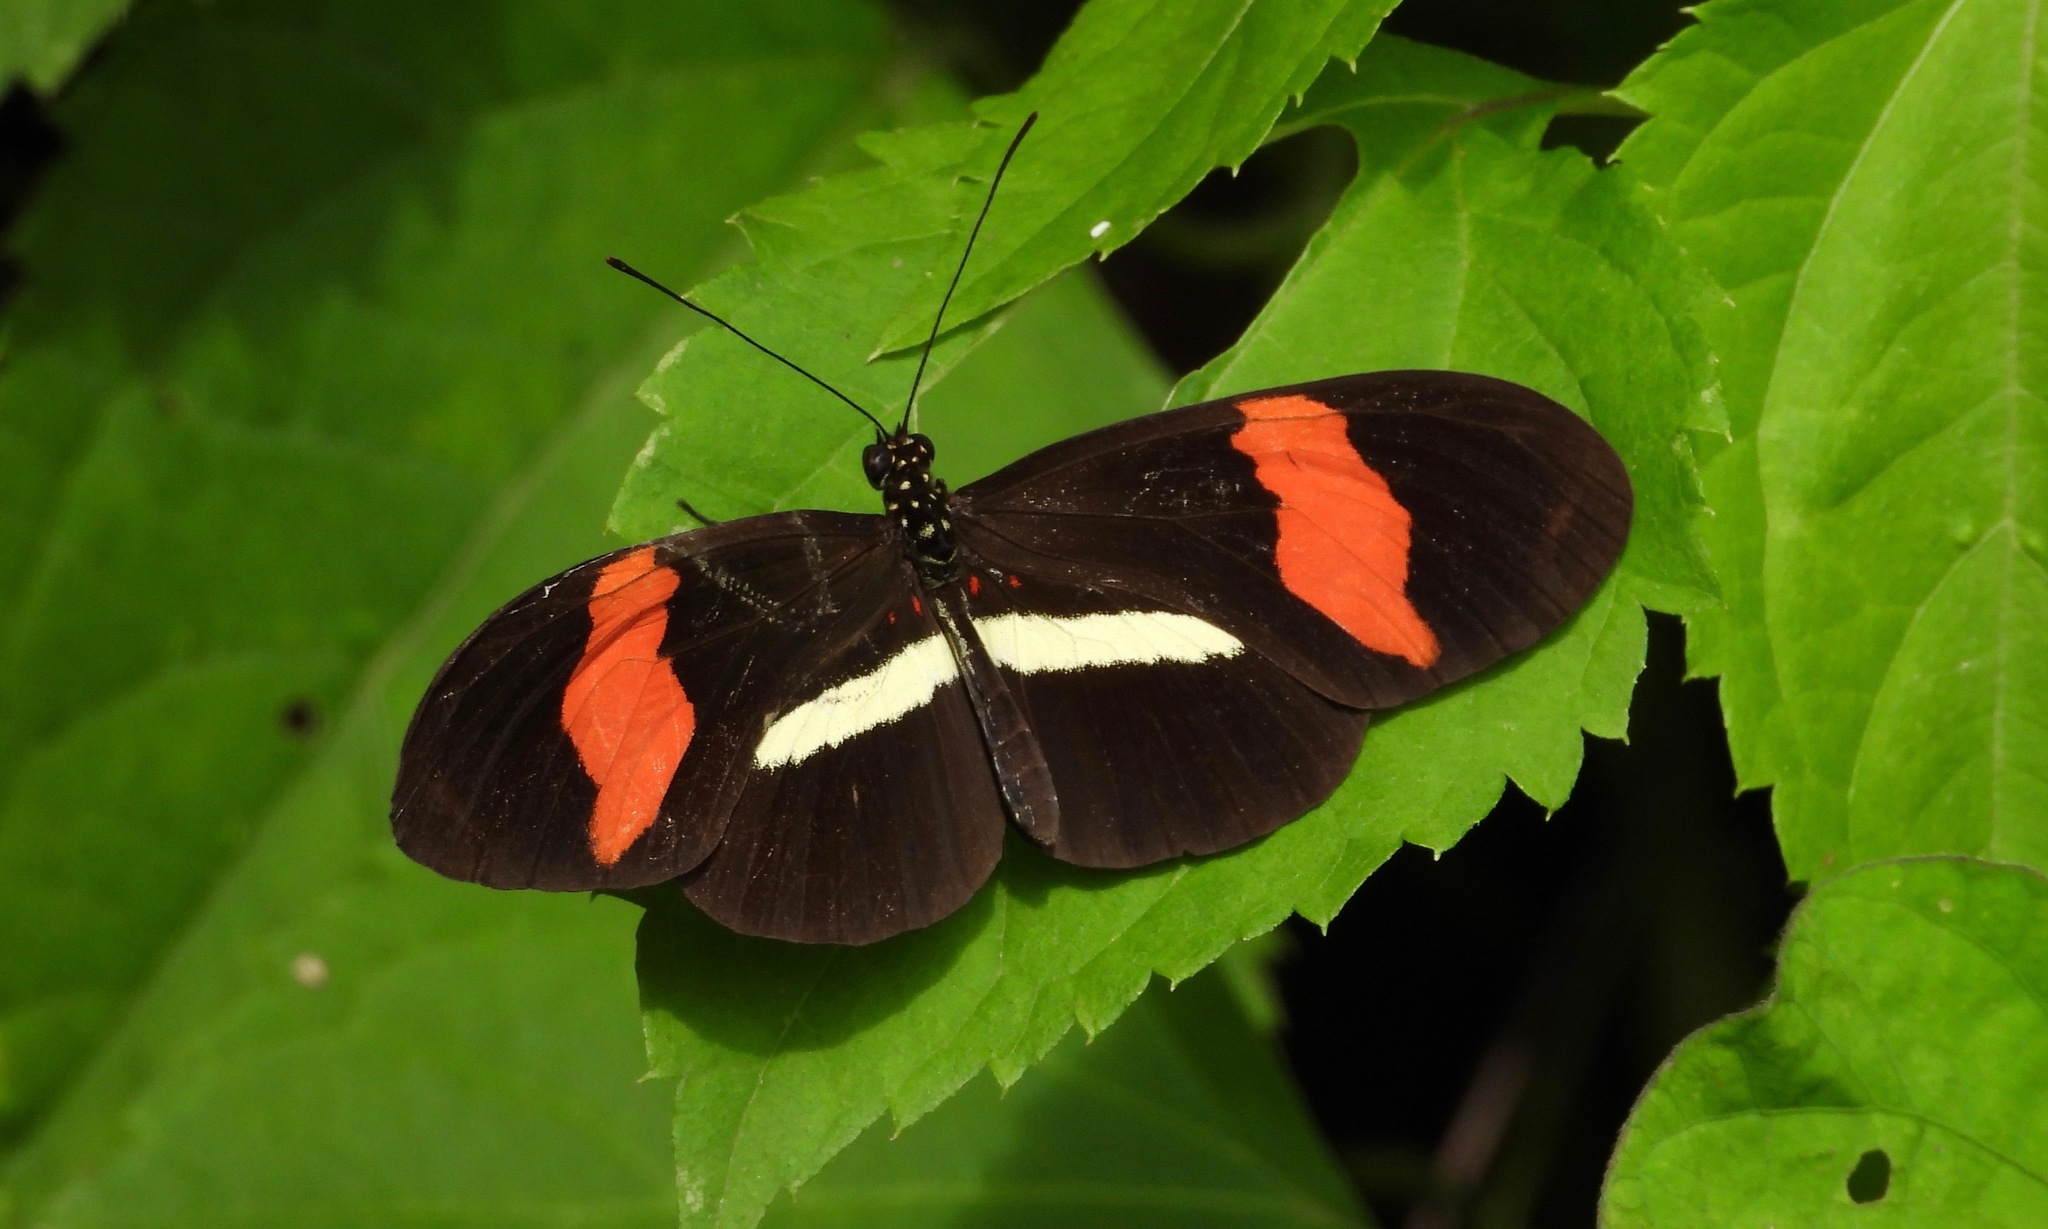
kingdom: Animalia
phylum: Arthropoda
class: Insecta
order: Lepidoptera
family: Nymphalidae
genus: Heliconius
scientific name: Heliconius erato
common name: Common patch longwing
